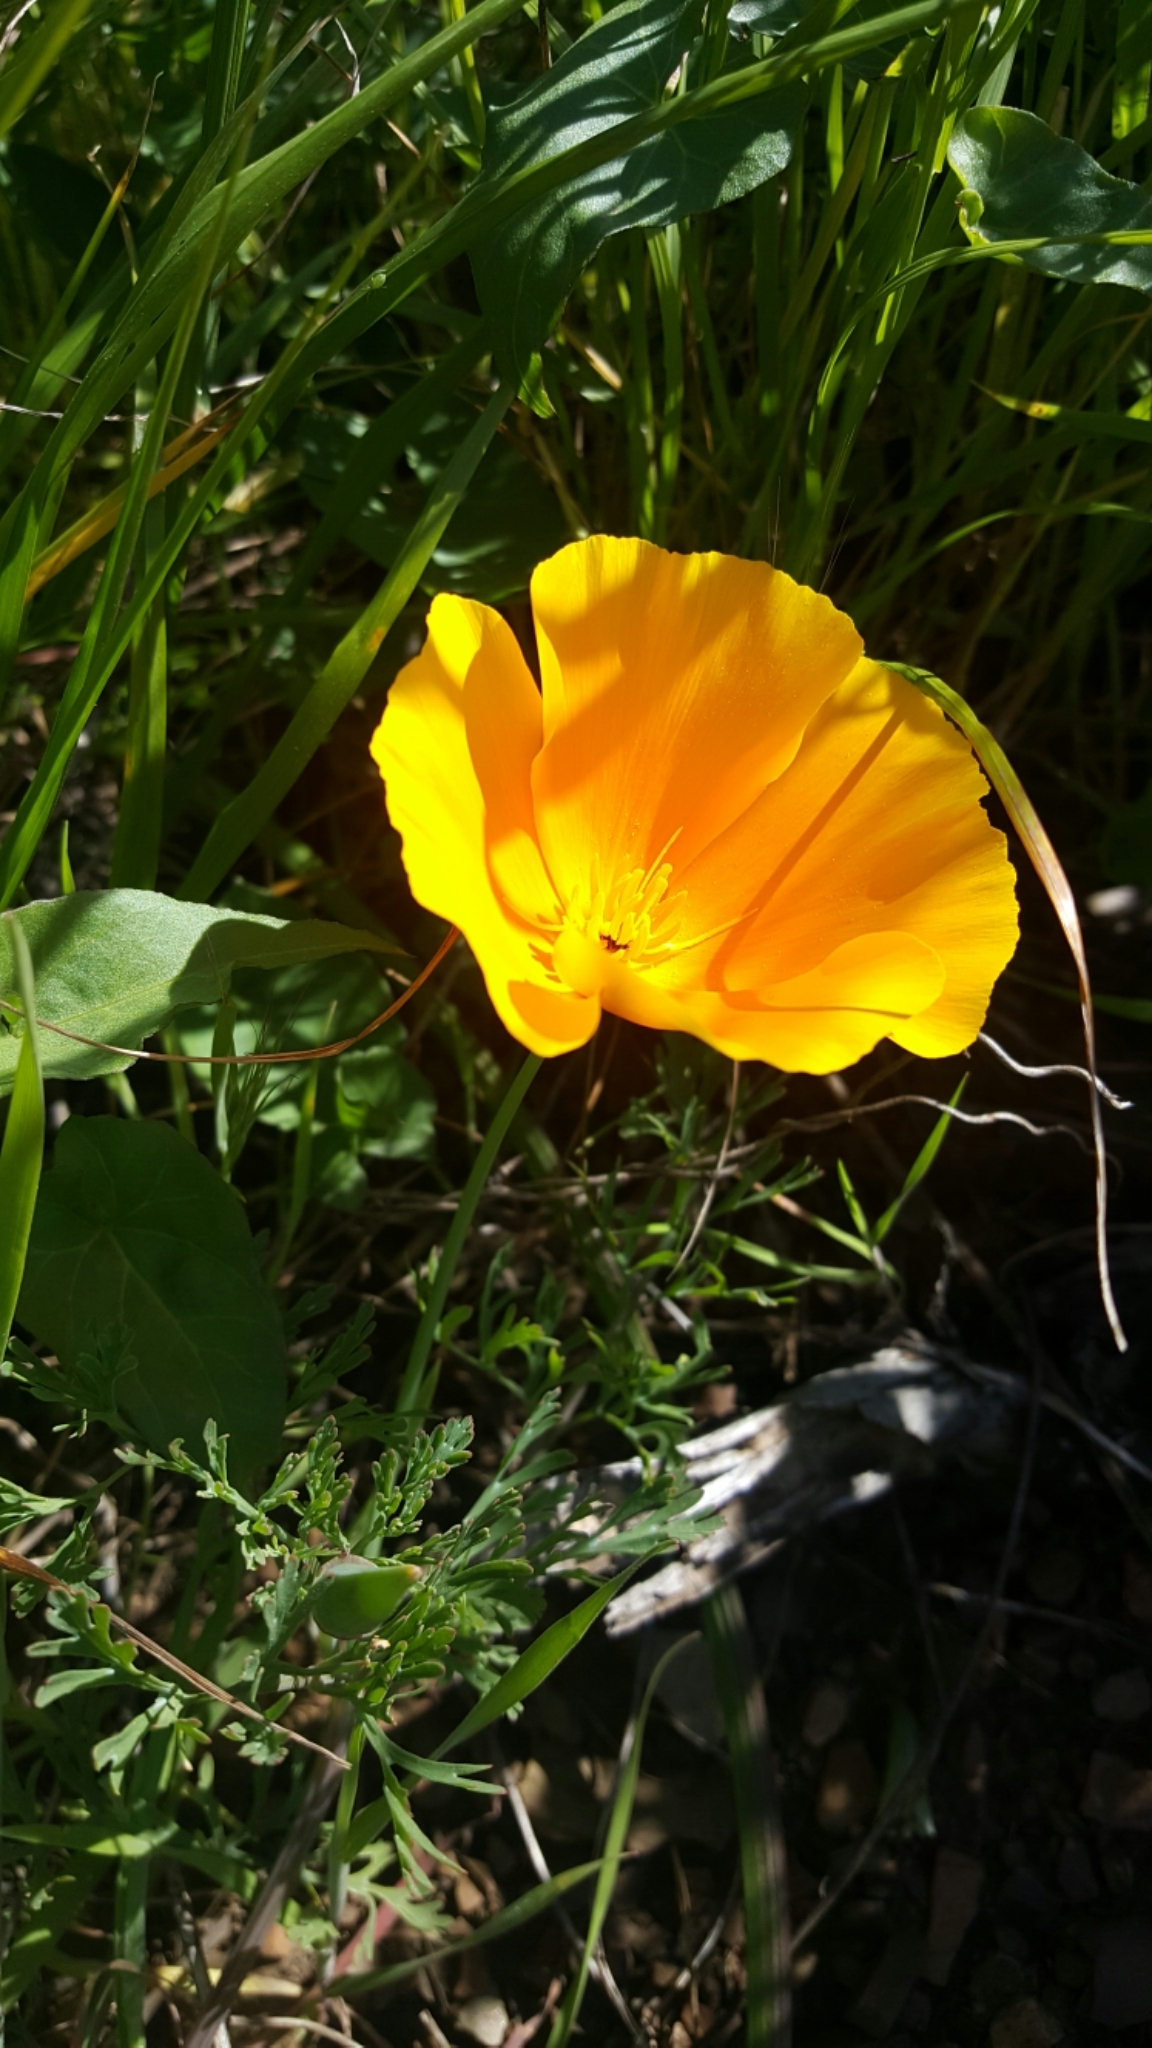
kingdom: Plantae
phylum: Tracheophyta
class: Magnoliopsida
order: Ranunculales
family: Papaveraceae
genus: Eschscholzia
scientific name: Eschscholzia californica
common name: California poppy
